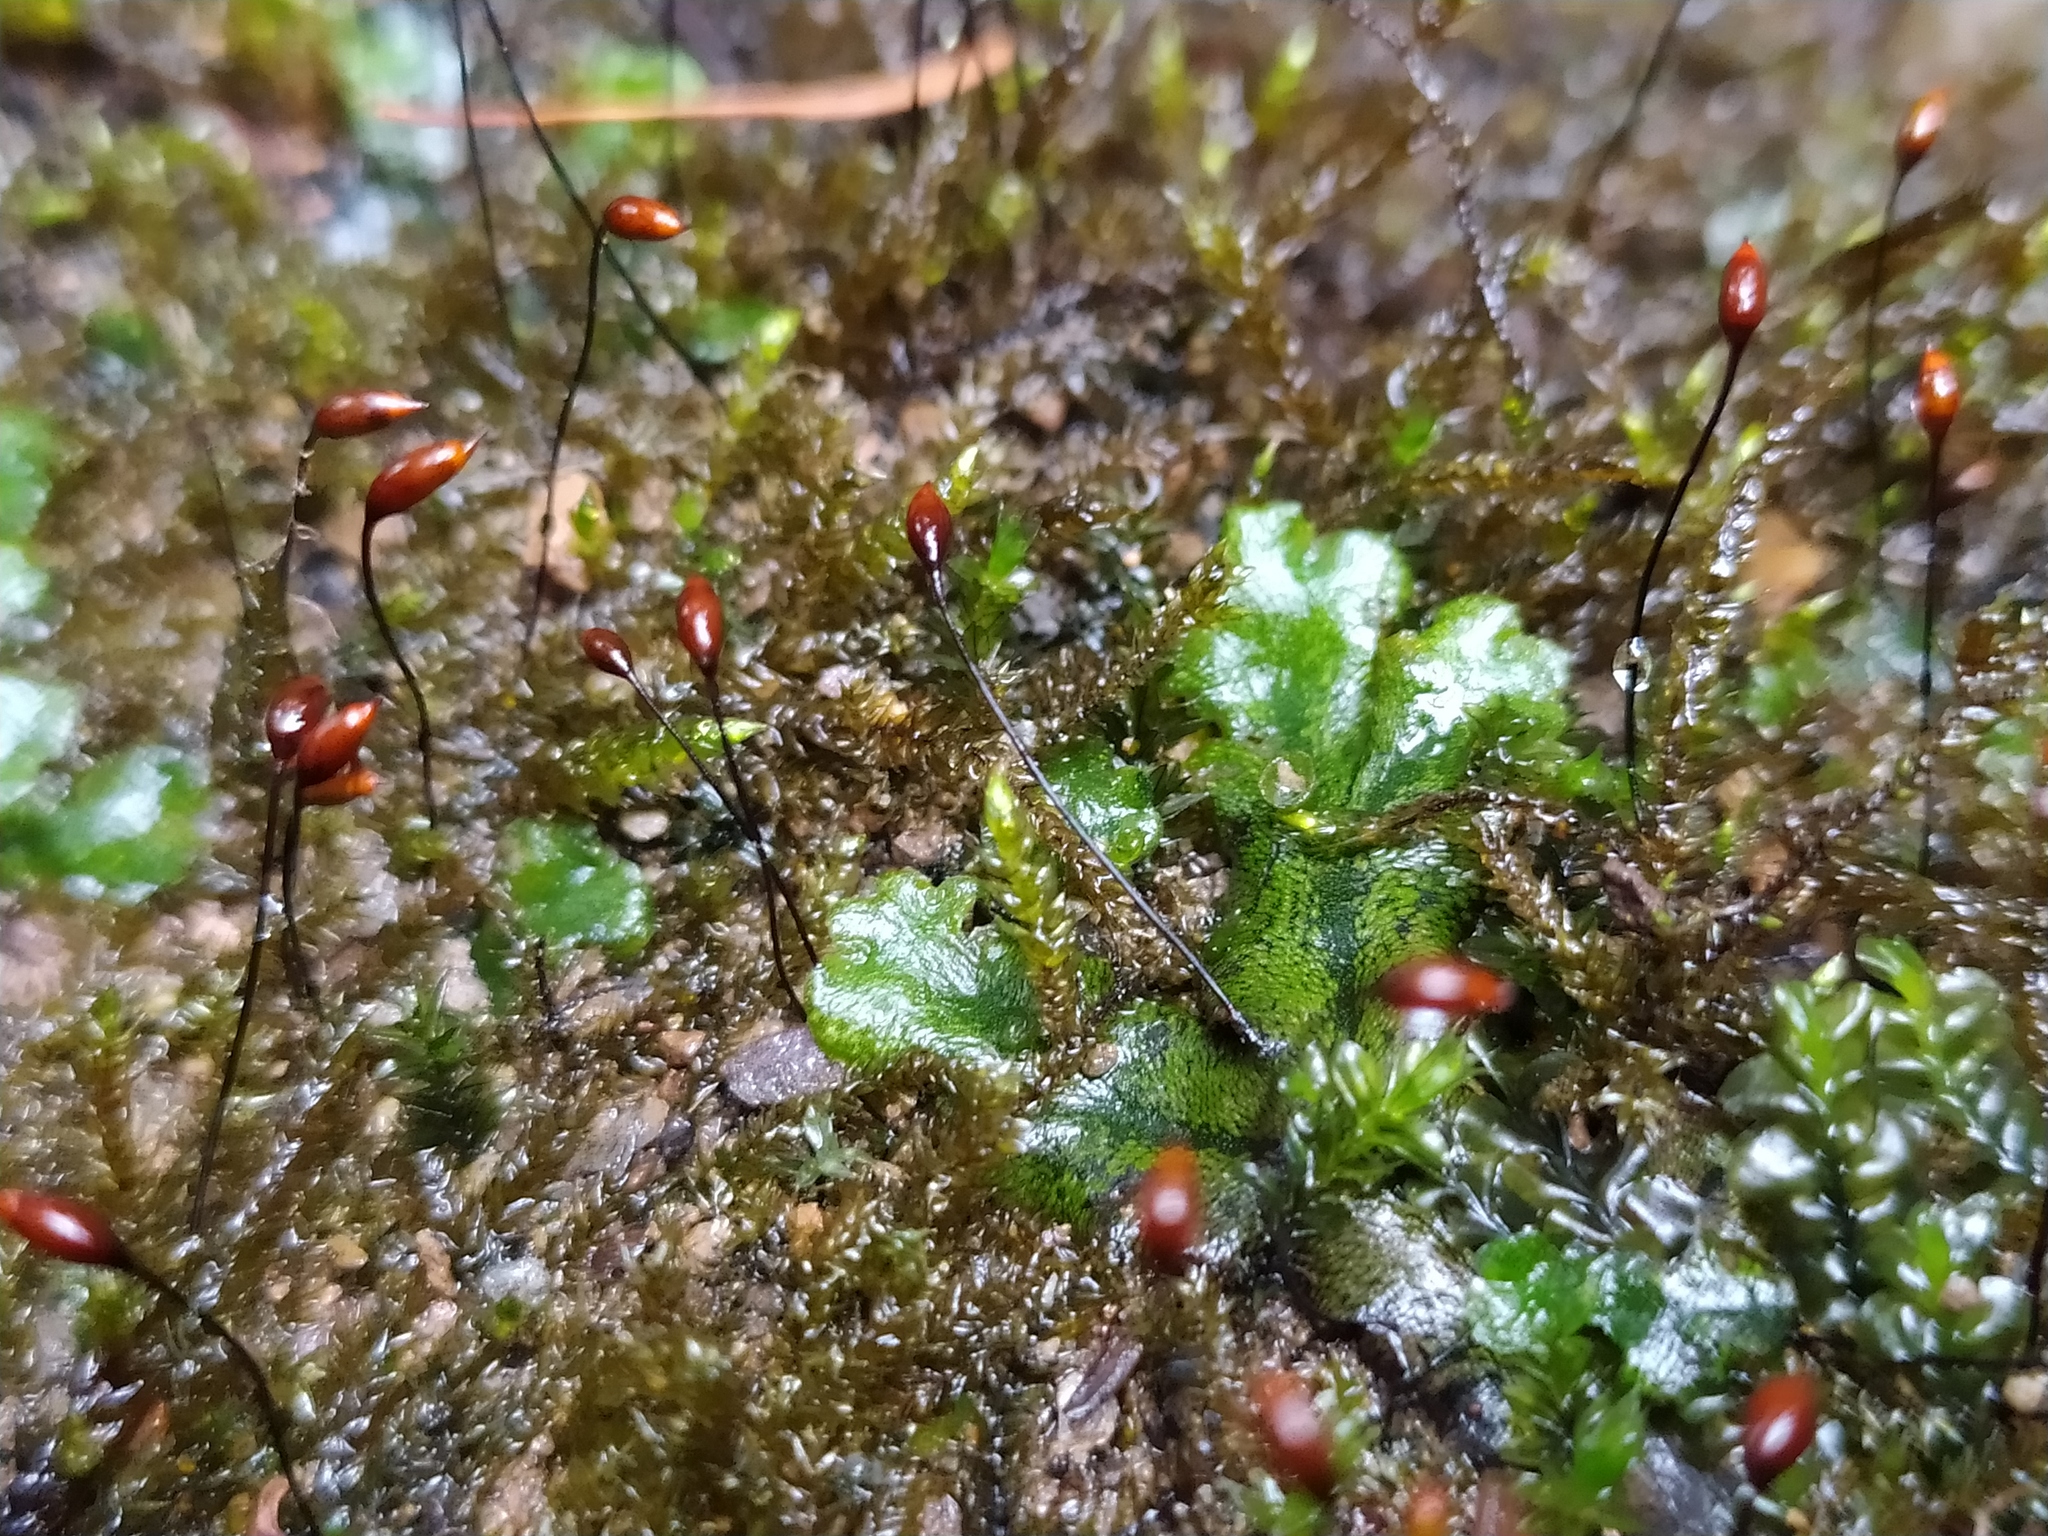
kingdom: Plantae
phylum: Marchantiophyta
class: Marchantiopsida
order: Marchantiales
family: Marchantiaceae
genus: Marchantia
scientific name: Marchantia polymorpha
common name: Common liverwort
